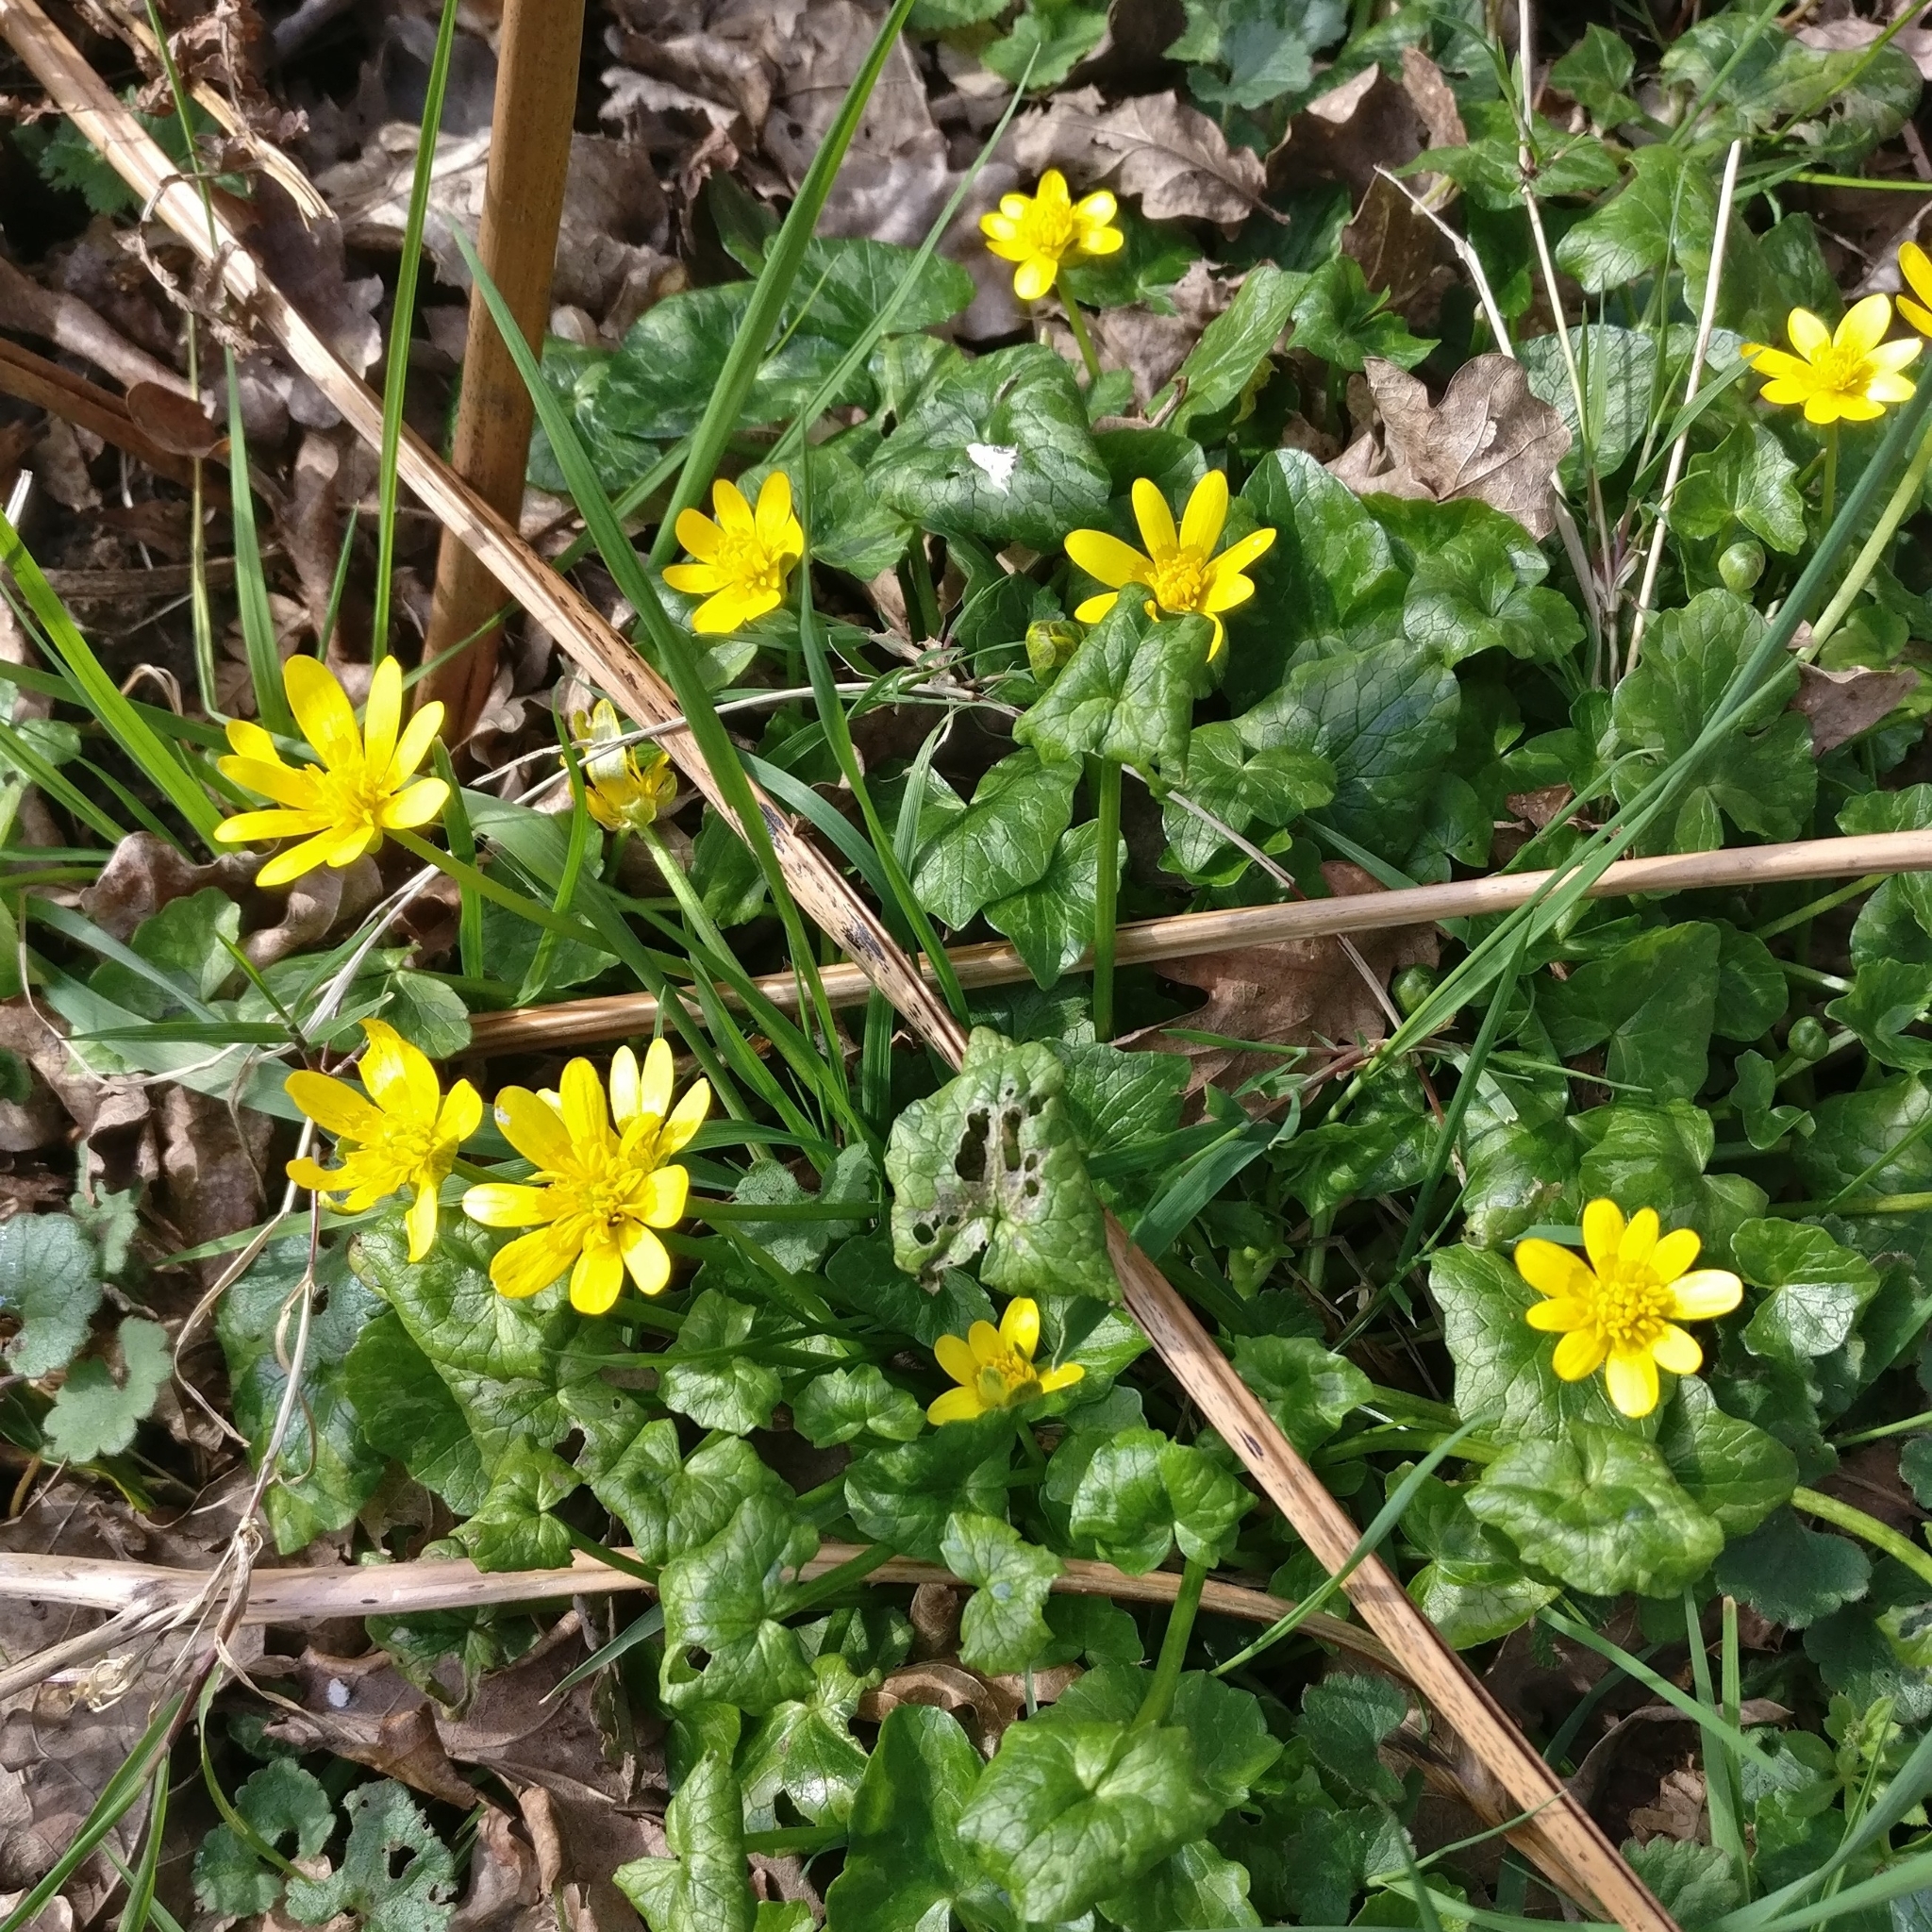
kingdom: Plantae
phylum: Tracheophyta
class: Magnoliopsida
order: Ranunculales
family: Ranunculaceae
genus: Ficaria
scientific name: Ficaria verna
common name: Lesser celandine
